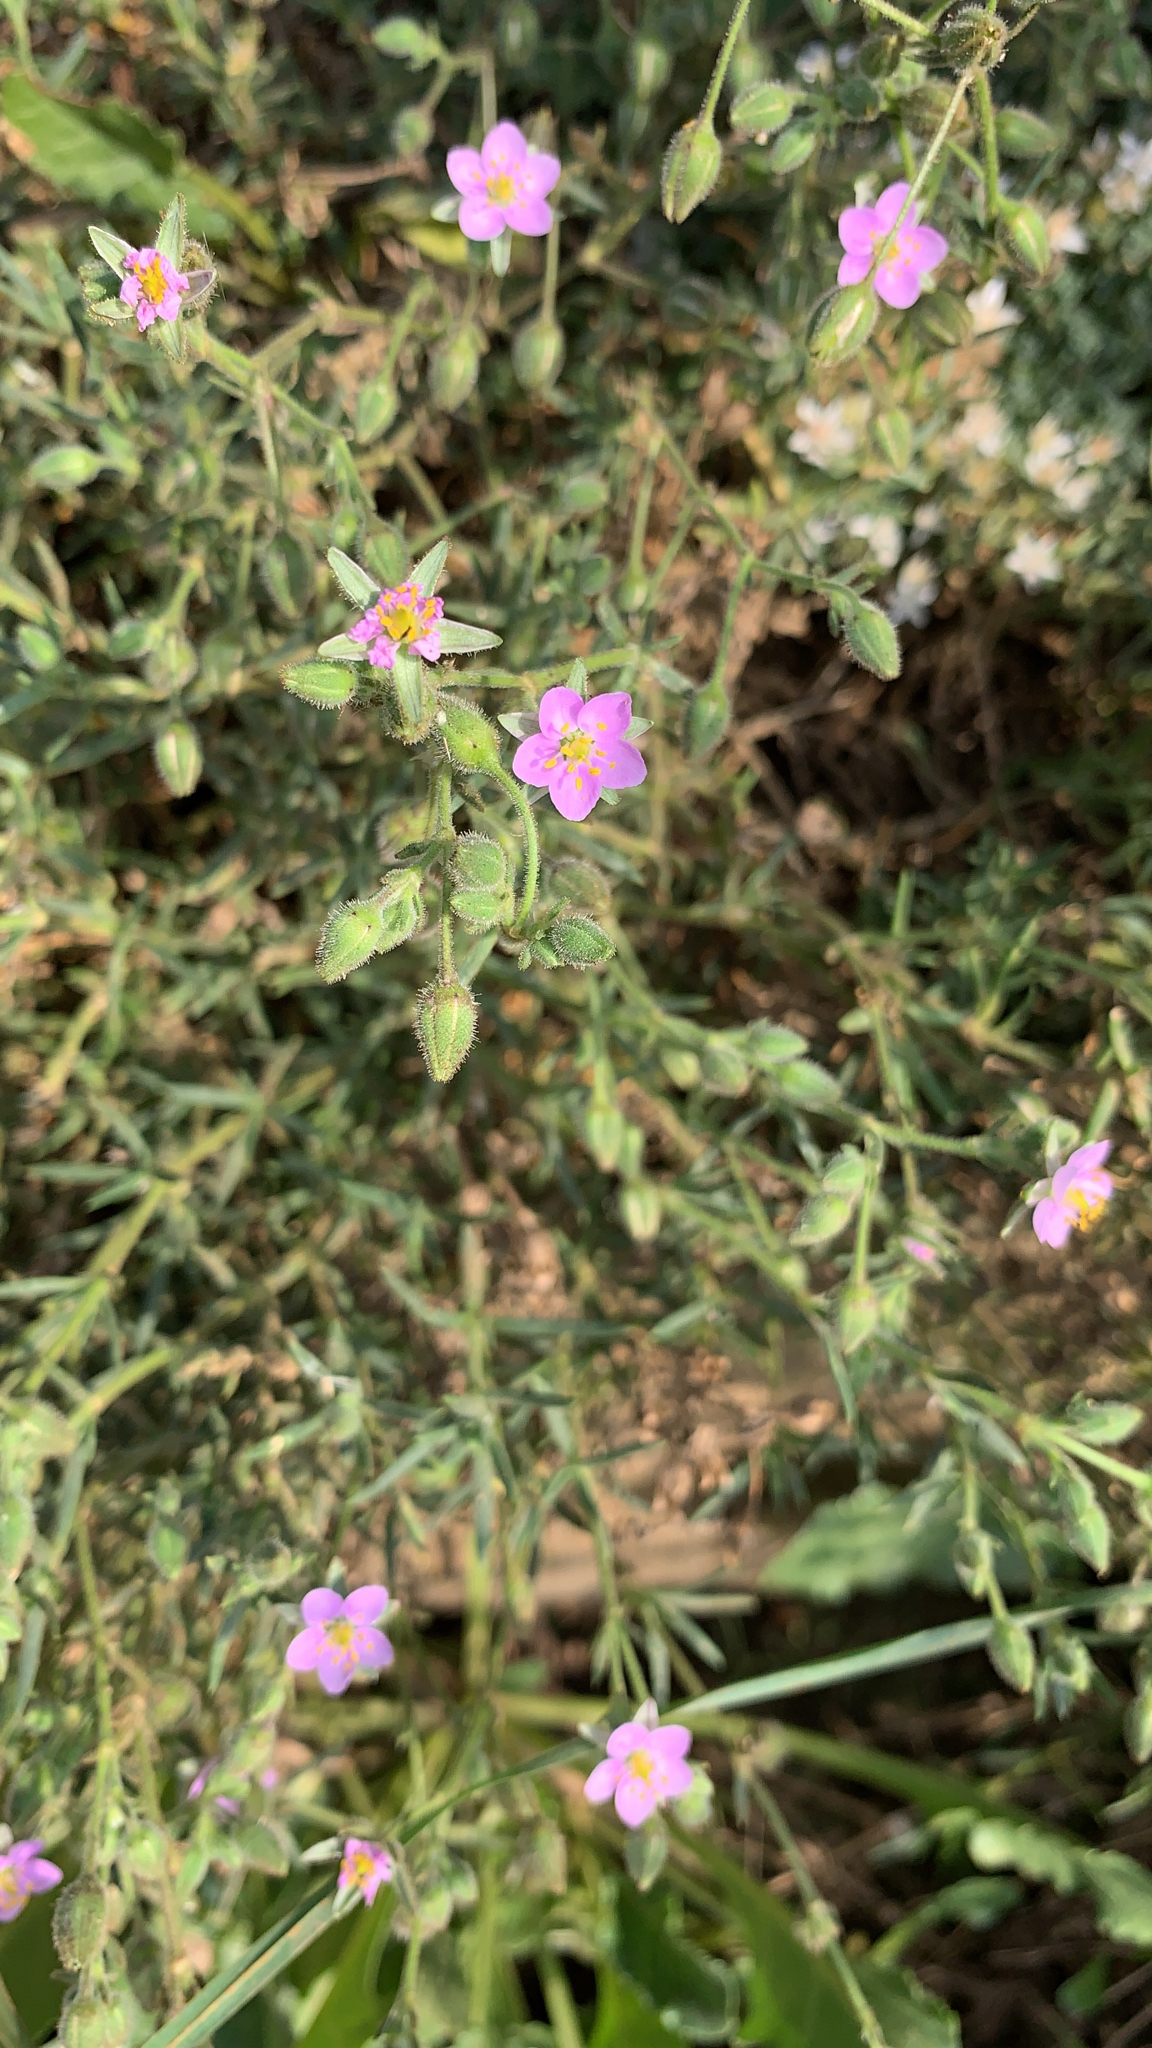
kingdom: Plantae
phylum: Tracheophyta
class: Magnoliopsida
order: Caryophyllales
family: Caryophyllaceae
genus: Spergularia
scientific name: Spergularia rubra
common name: Red sand-spurrey
